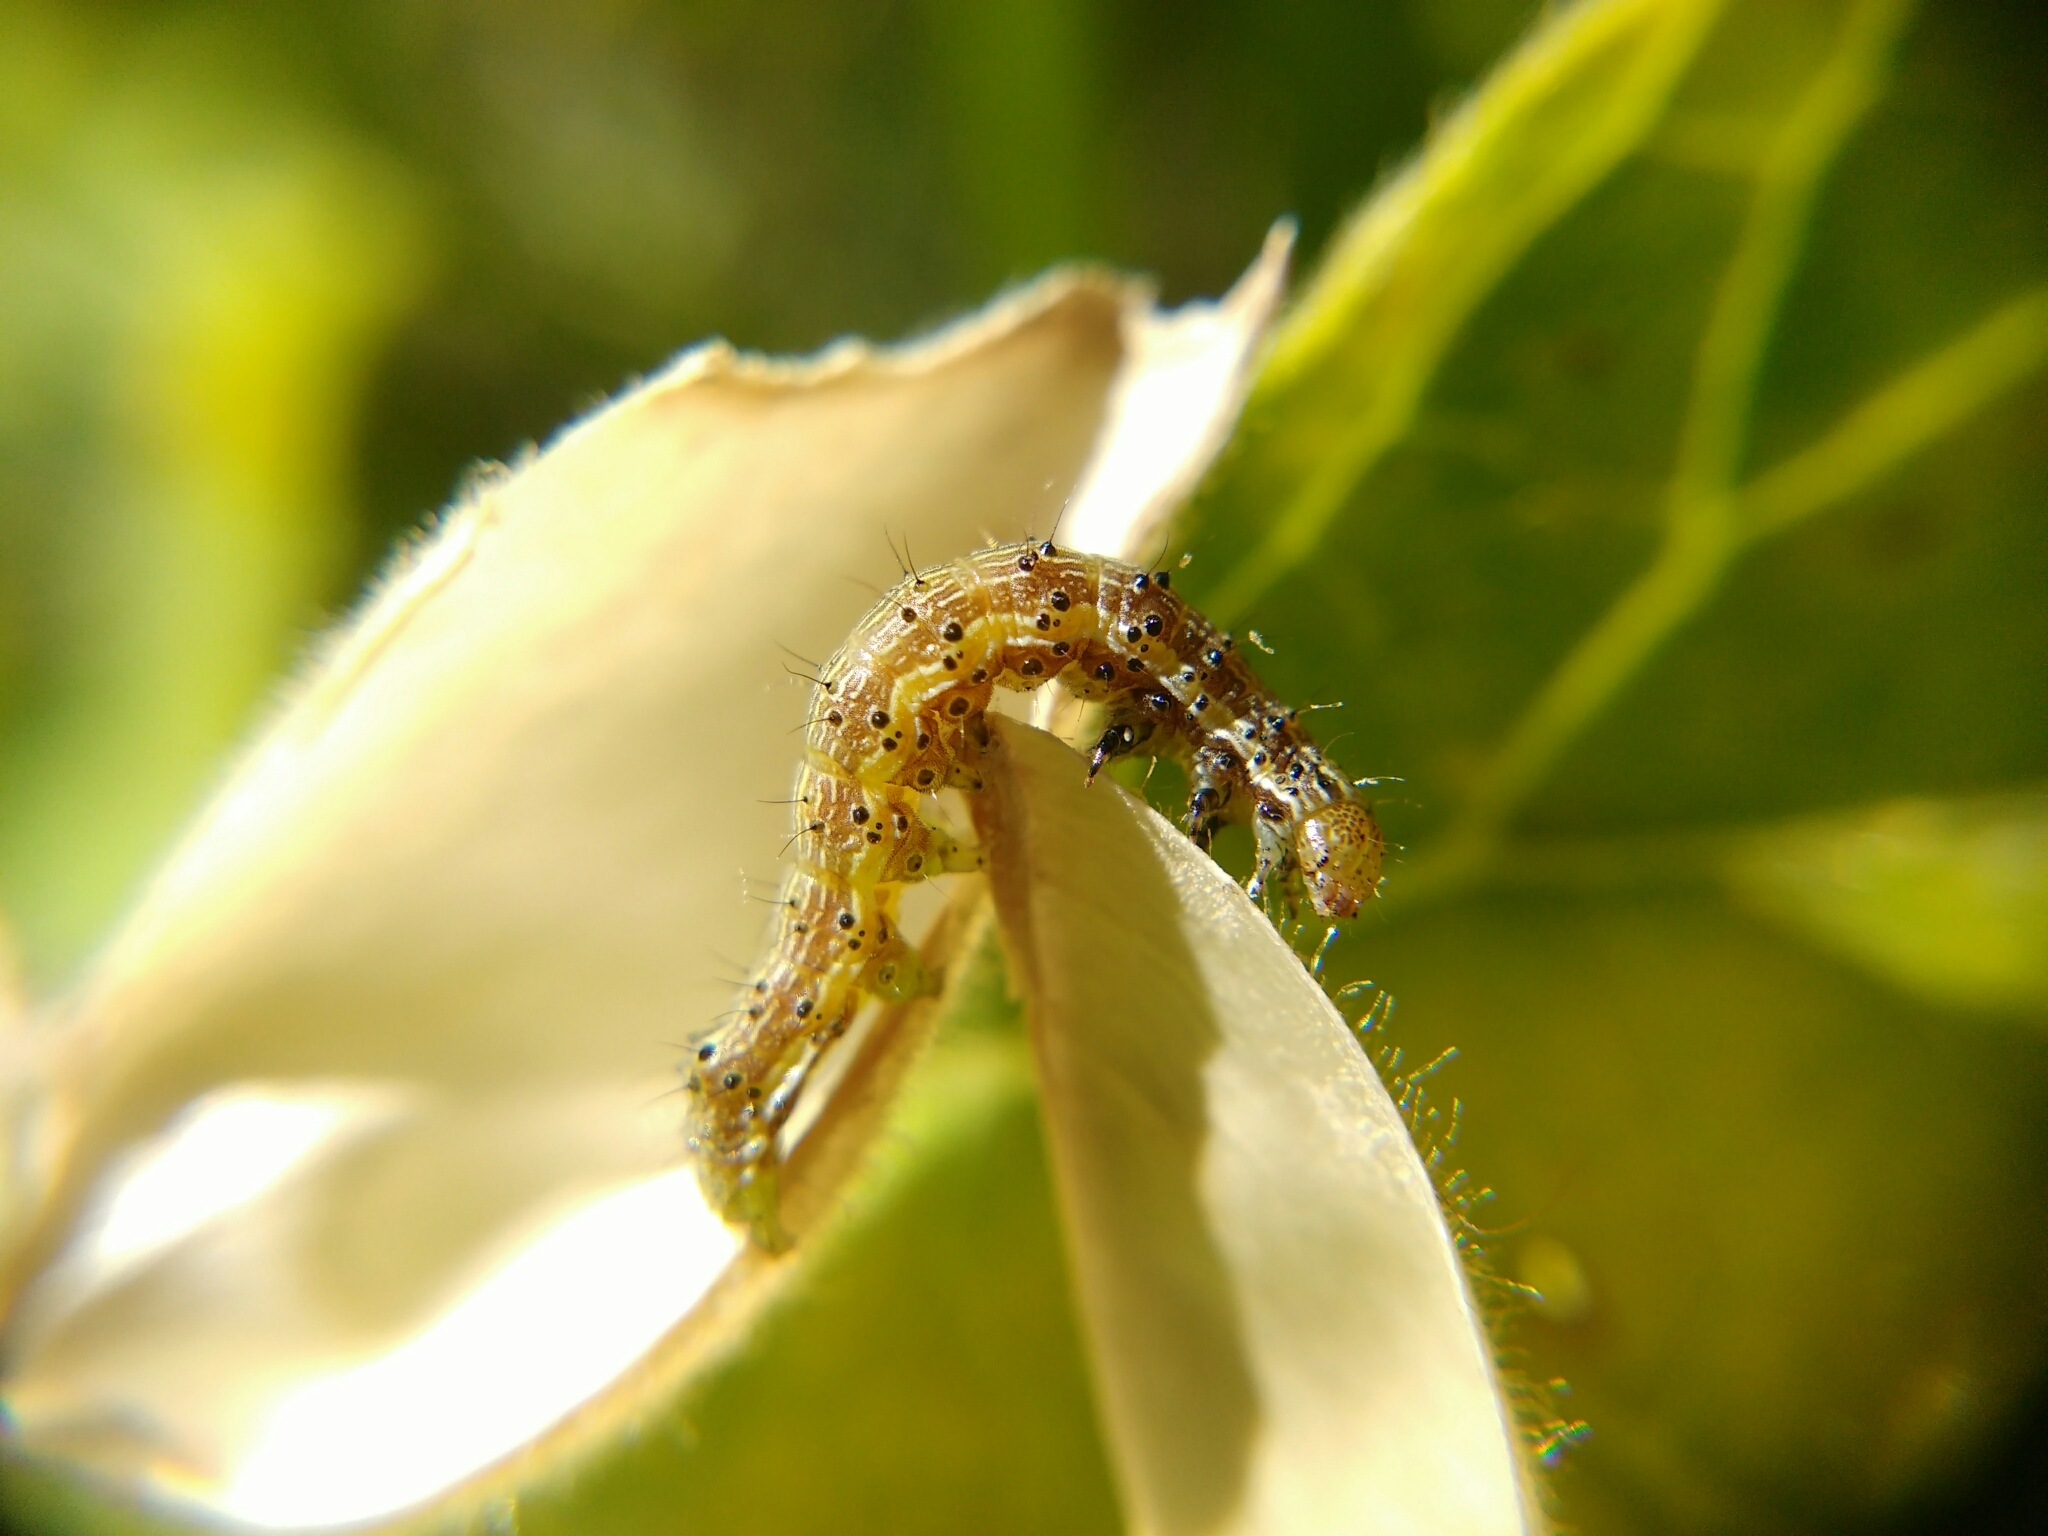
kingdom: Animalia
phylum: Arthropoda
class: Insecta
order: Lepidoptera
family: Noctuidae
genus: Helicoverpa
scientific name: Helicoverpa armigera
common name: Cotton bollworm
